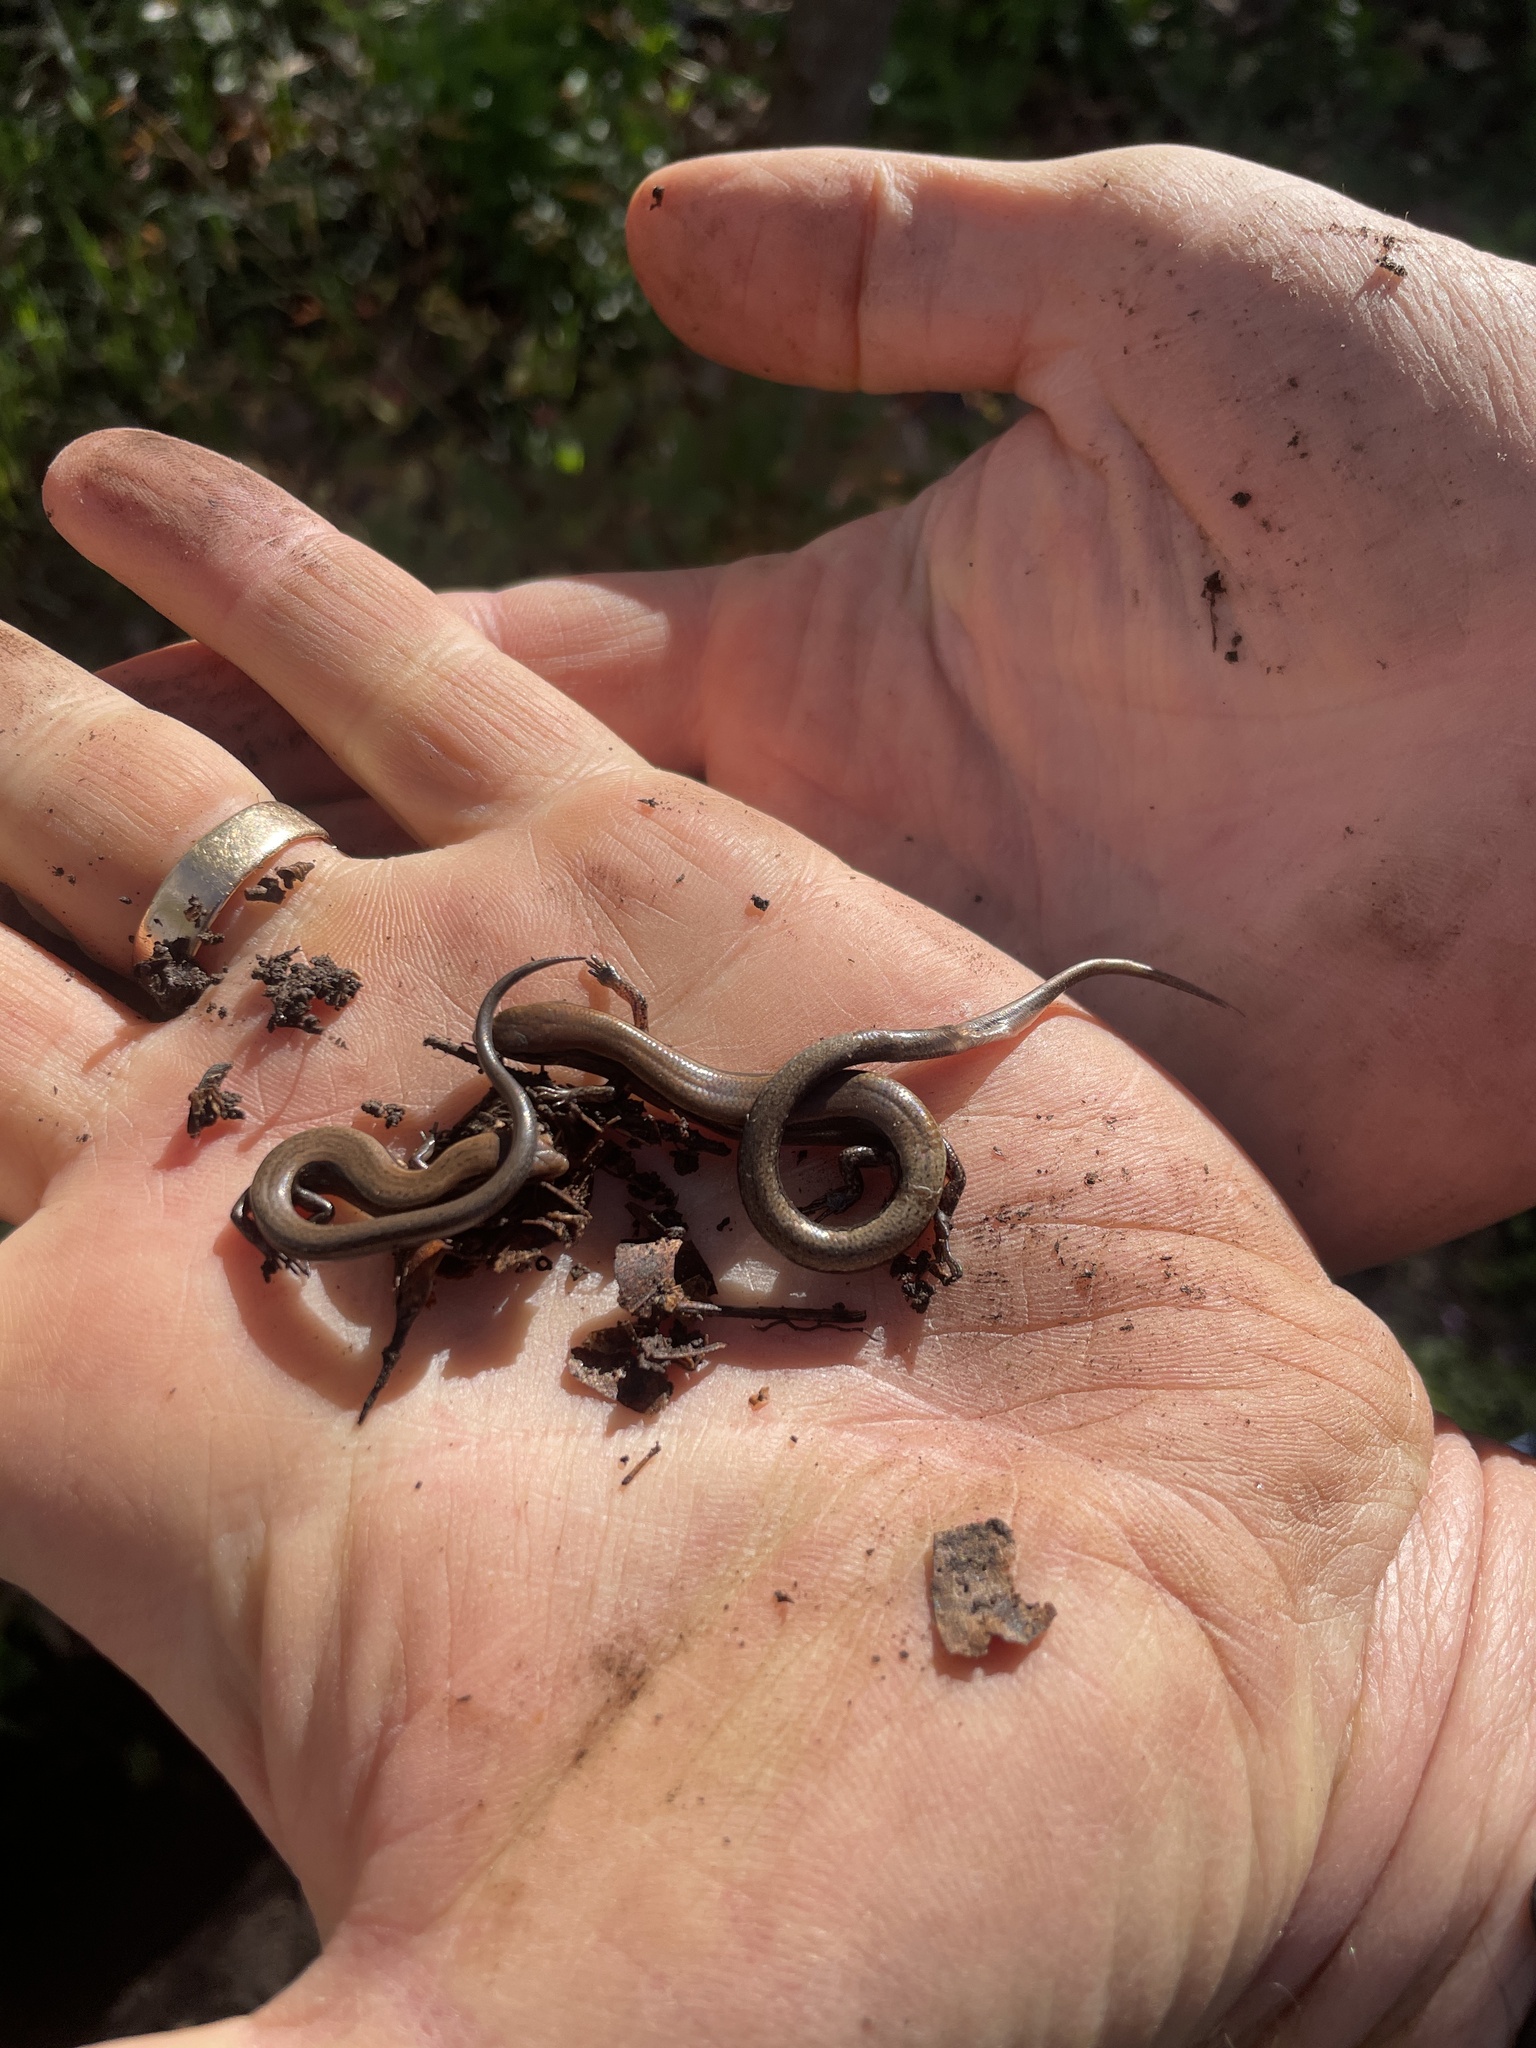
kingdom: Animalia
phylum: Chordata
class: Squamata
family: Scincidae
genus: Scincella
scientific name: Scincella lateralis
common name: Ground skink
